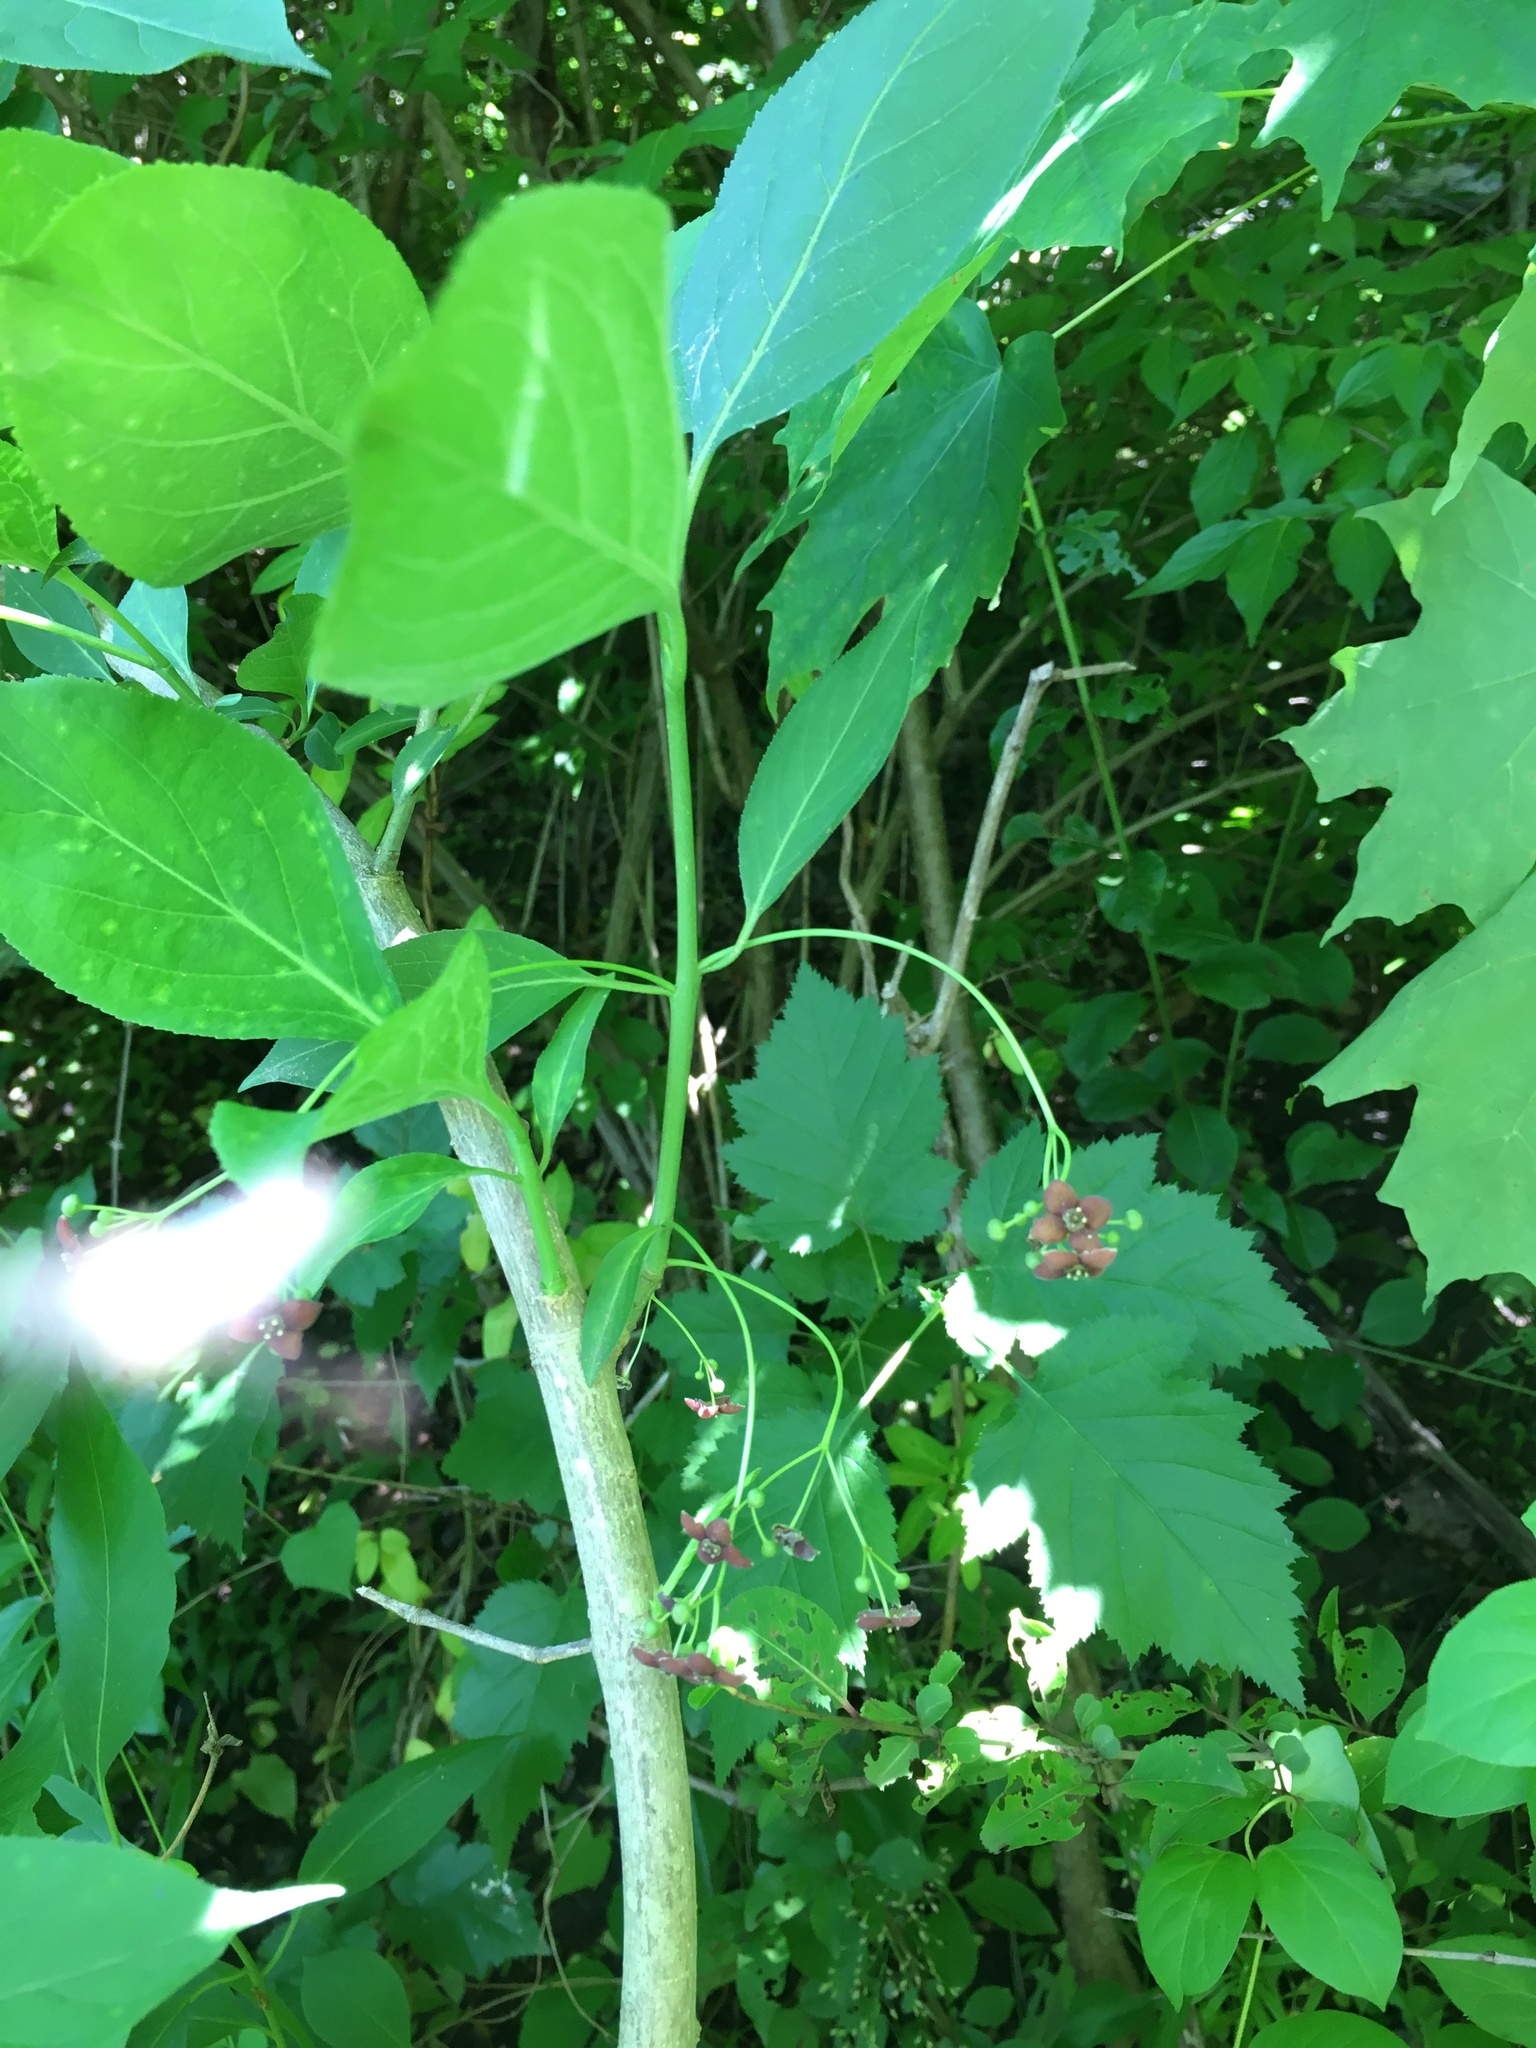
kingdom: Plantae
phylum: Tracheophyta
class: Magnoliopsida
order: Celastrales
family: Celastraceae
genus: Euonymus
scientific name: Euonymus atropurpureus
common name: Eastern wahoo
